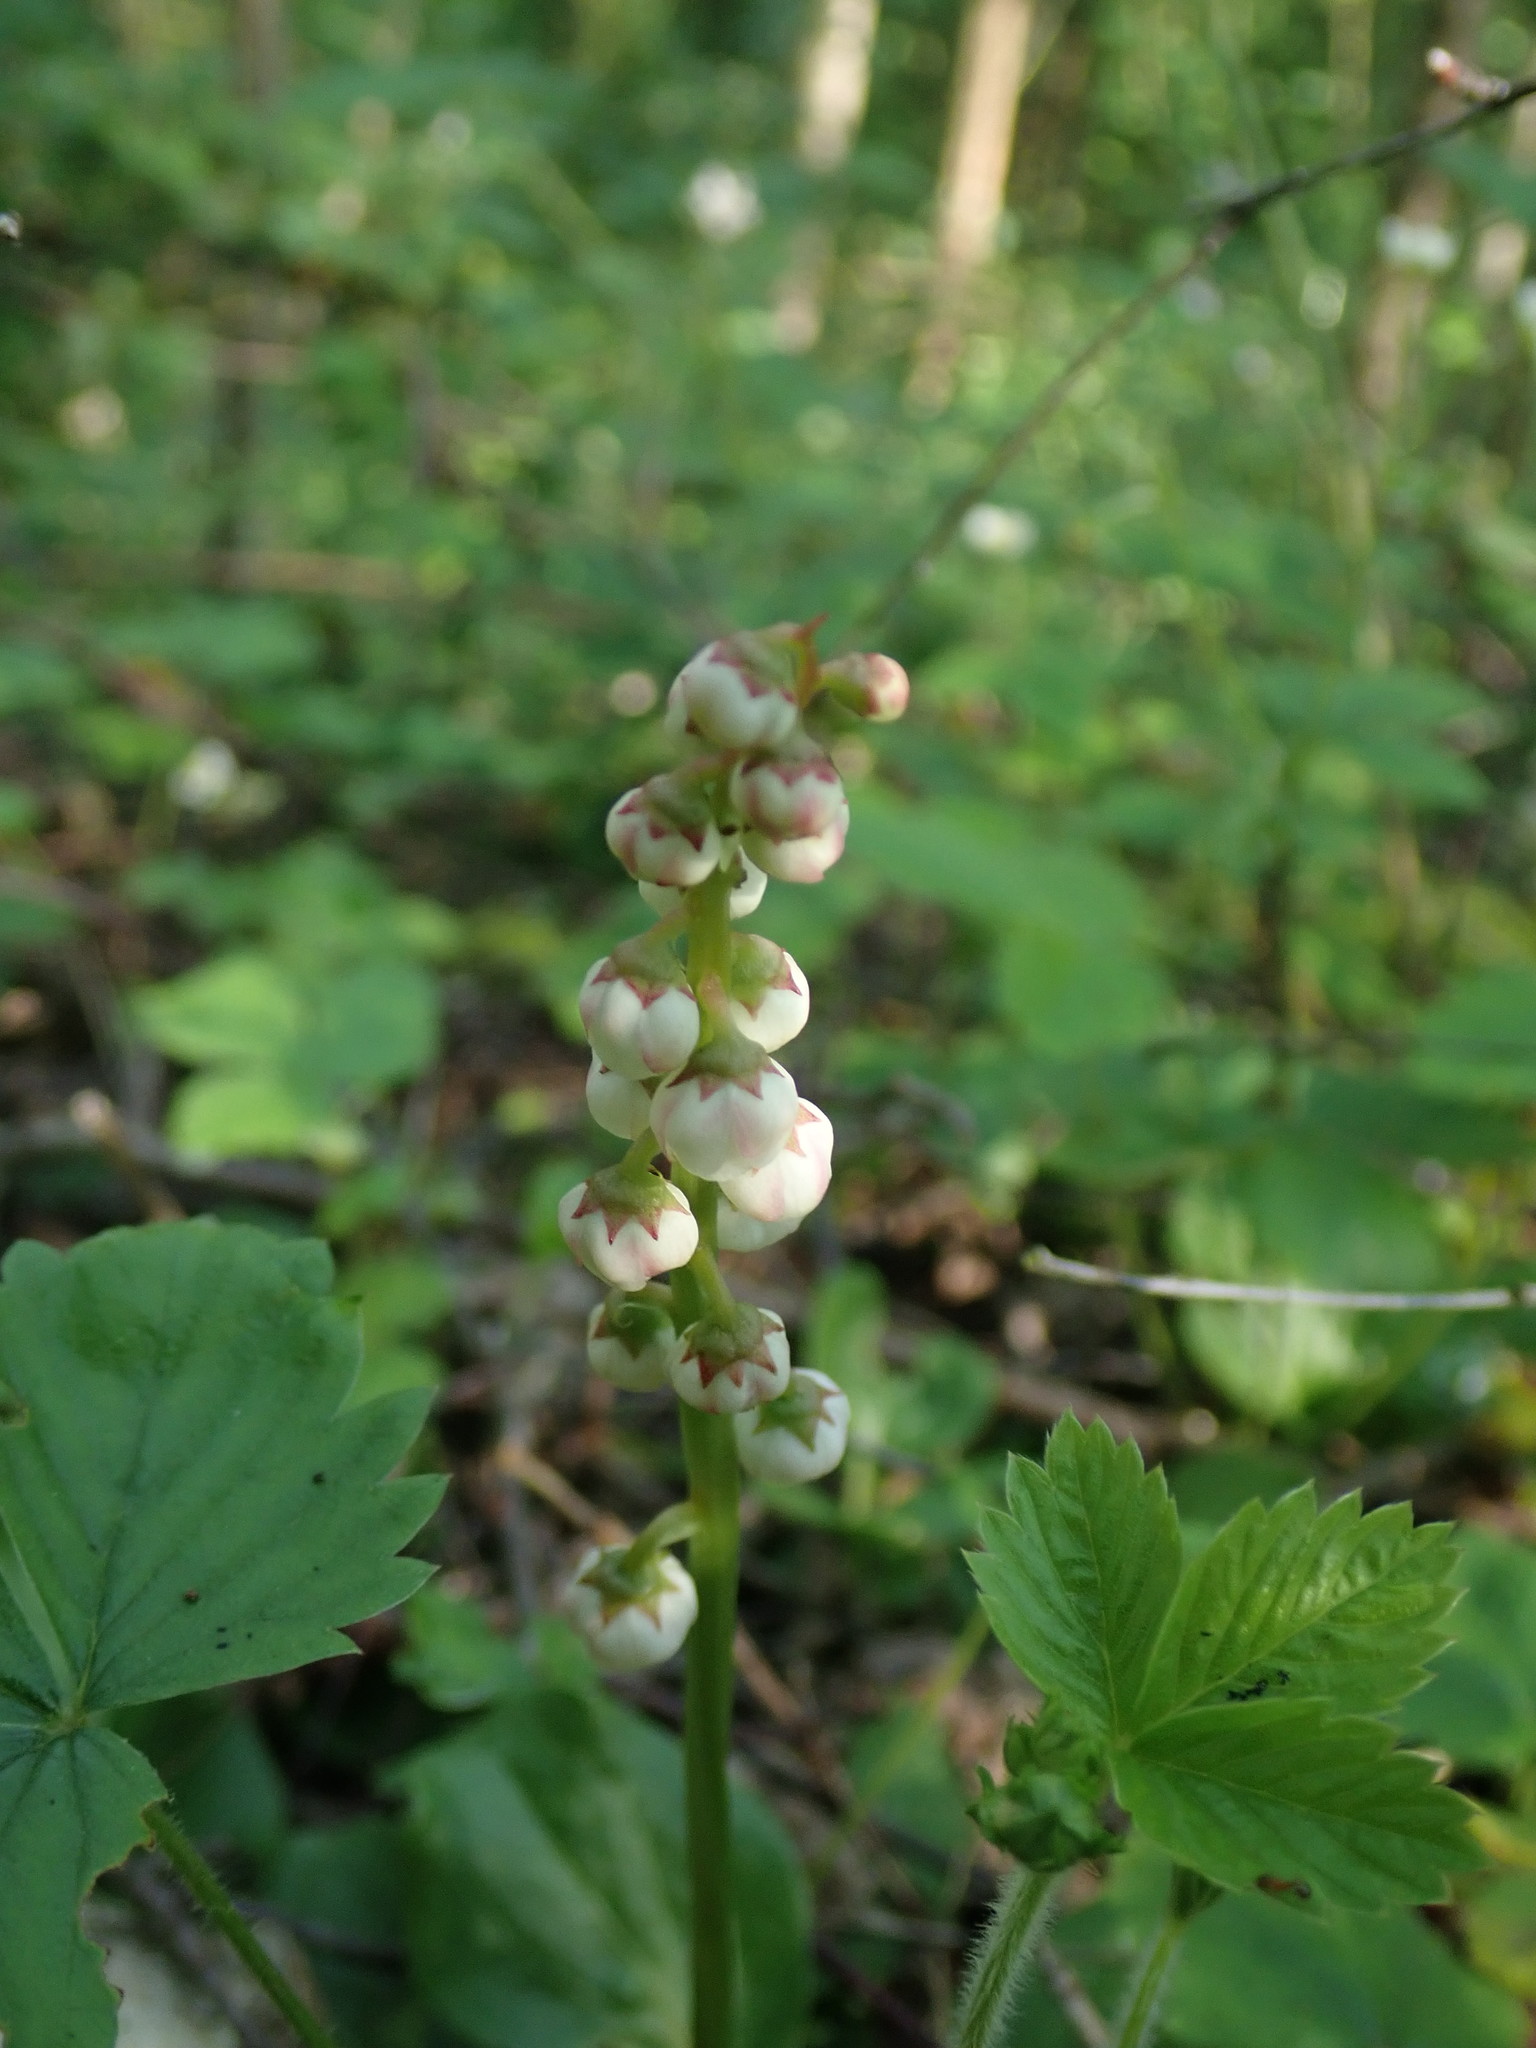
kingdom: Plantae
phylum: Tracheophyta
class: Magnoliopsida
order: Ericales
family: Ericaceae
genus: Pyrola
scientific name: Pyrola minor
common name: Common wintergreen
